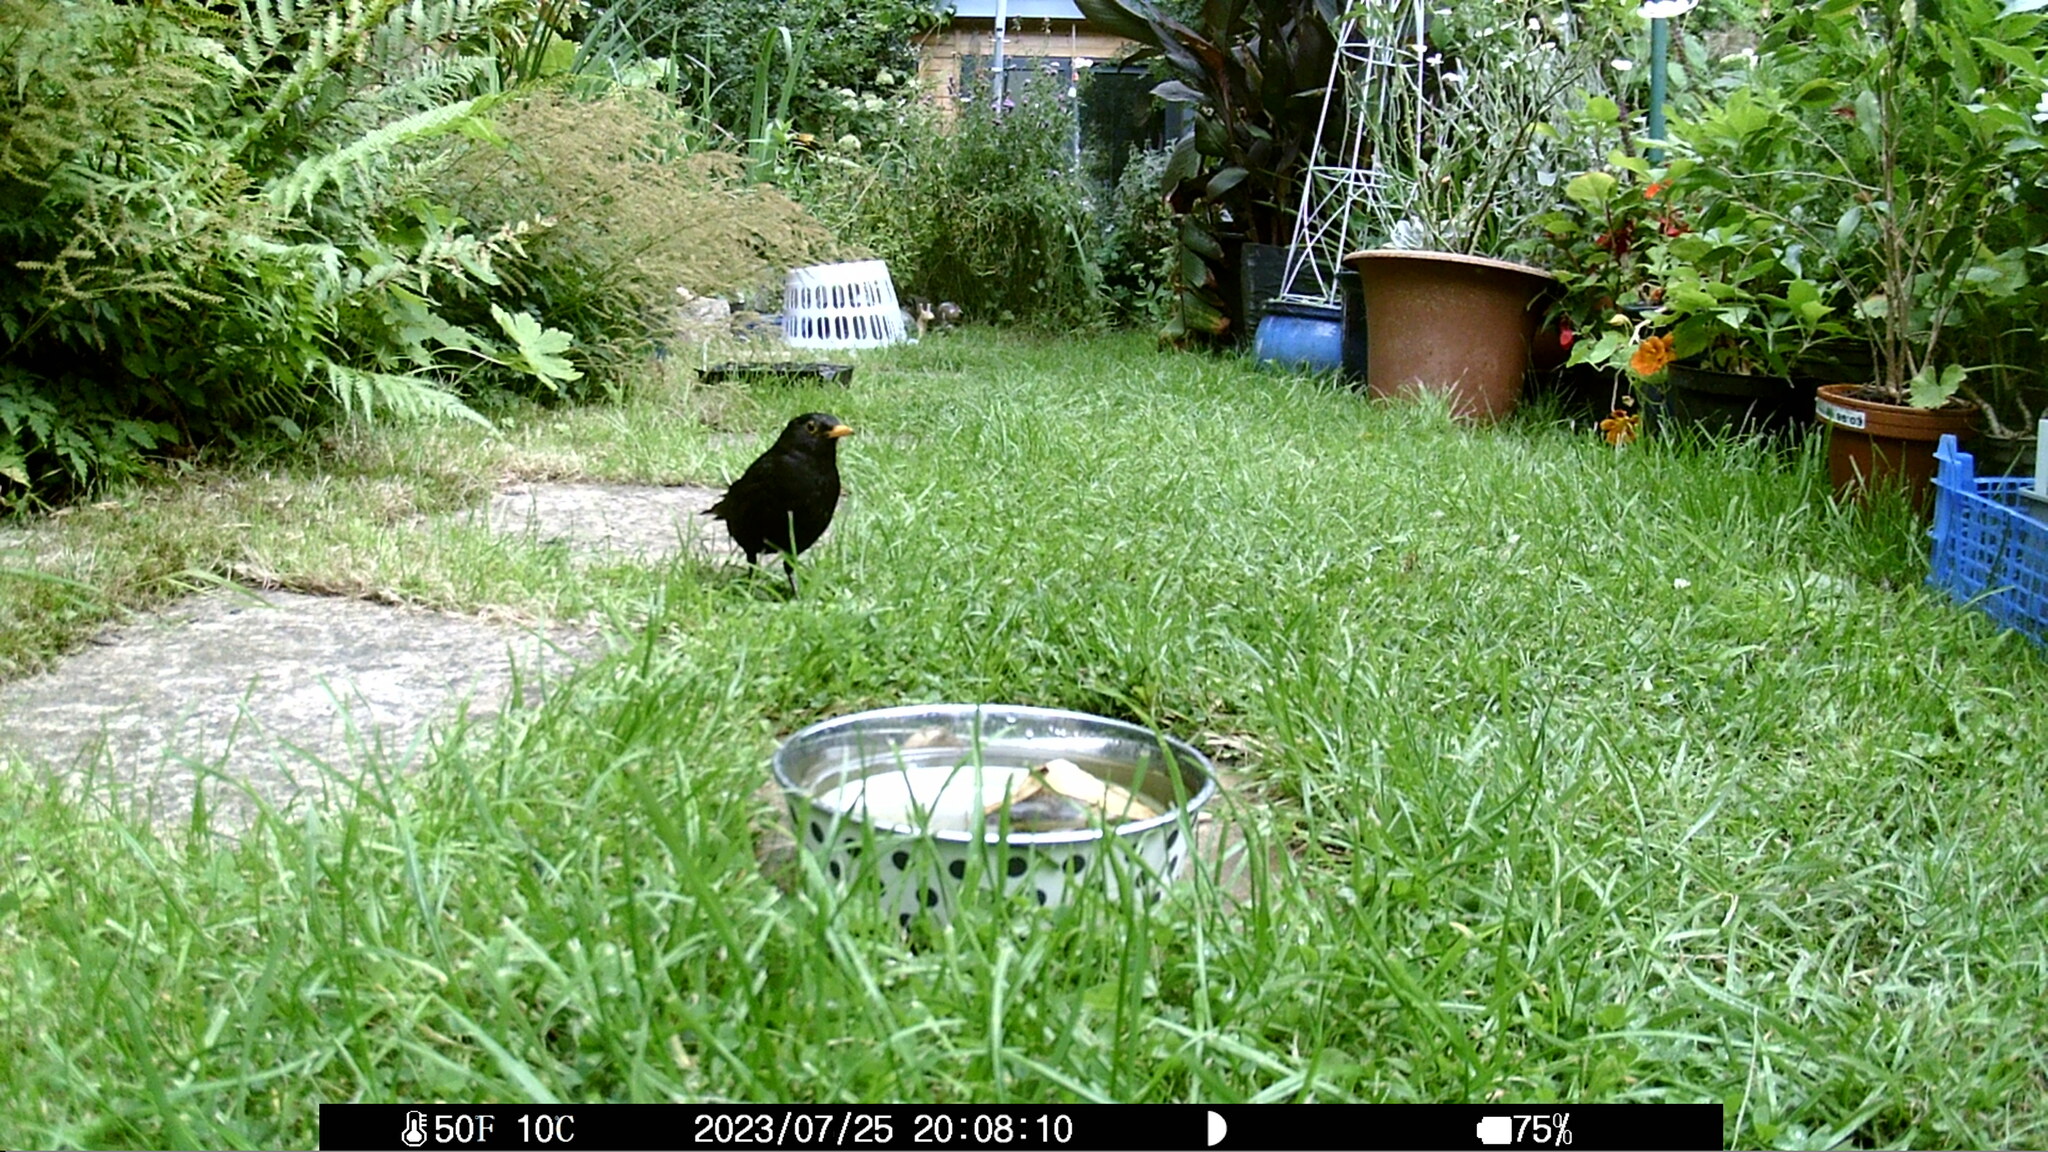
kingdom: Animalia
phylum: Chordata
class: Aves
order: Passeriformes
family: Turdidae
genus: Turdus
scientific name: Turdus merula
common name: Common blackbird
